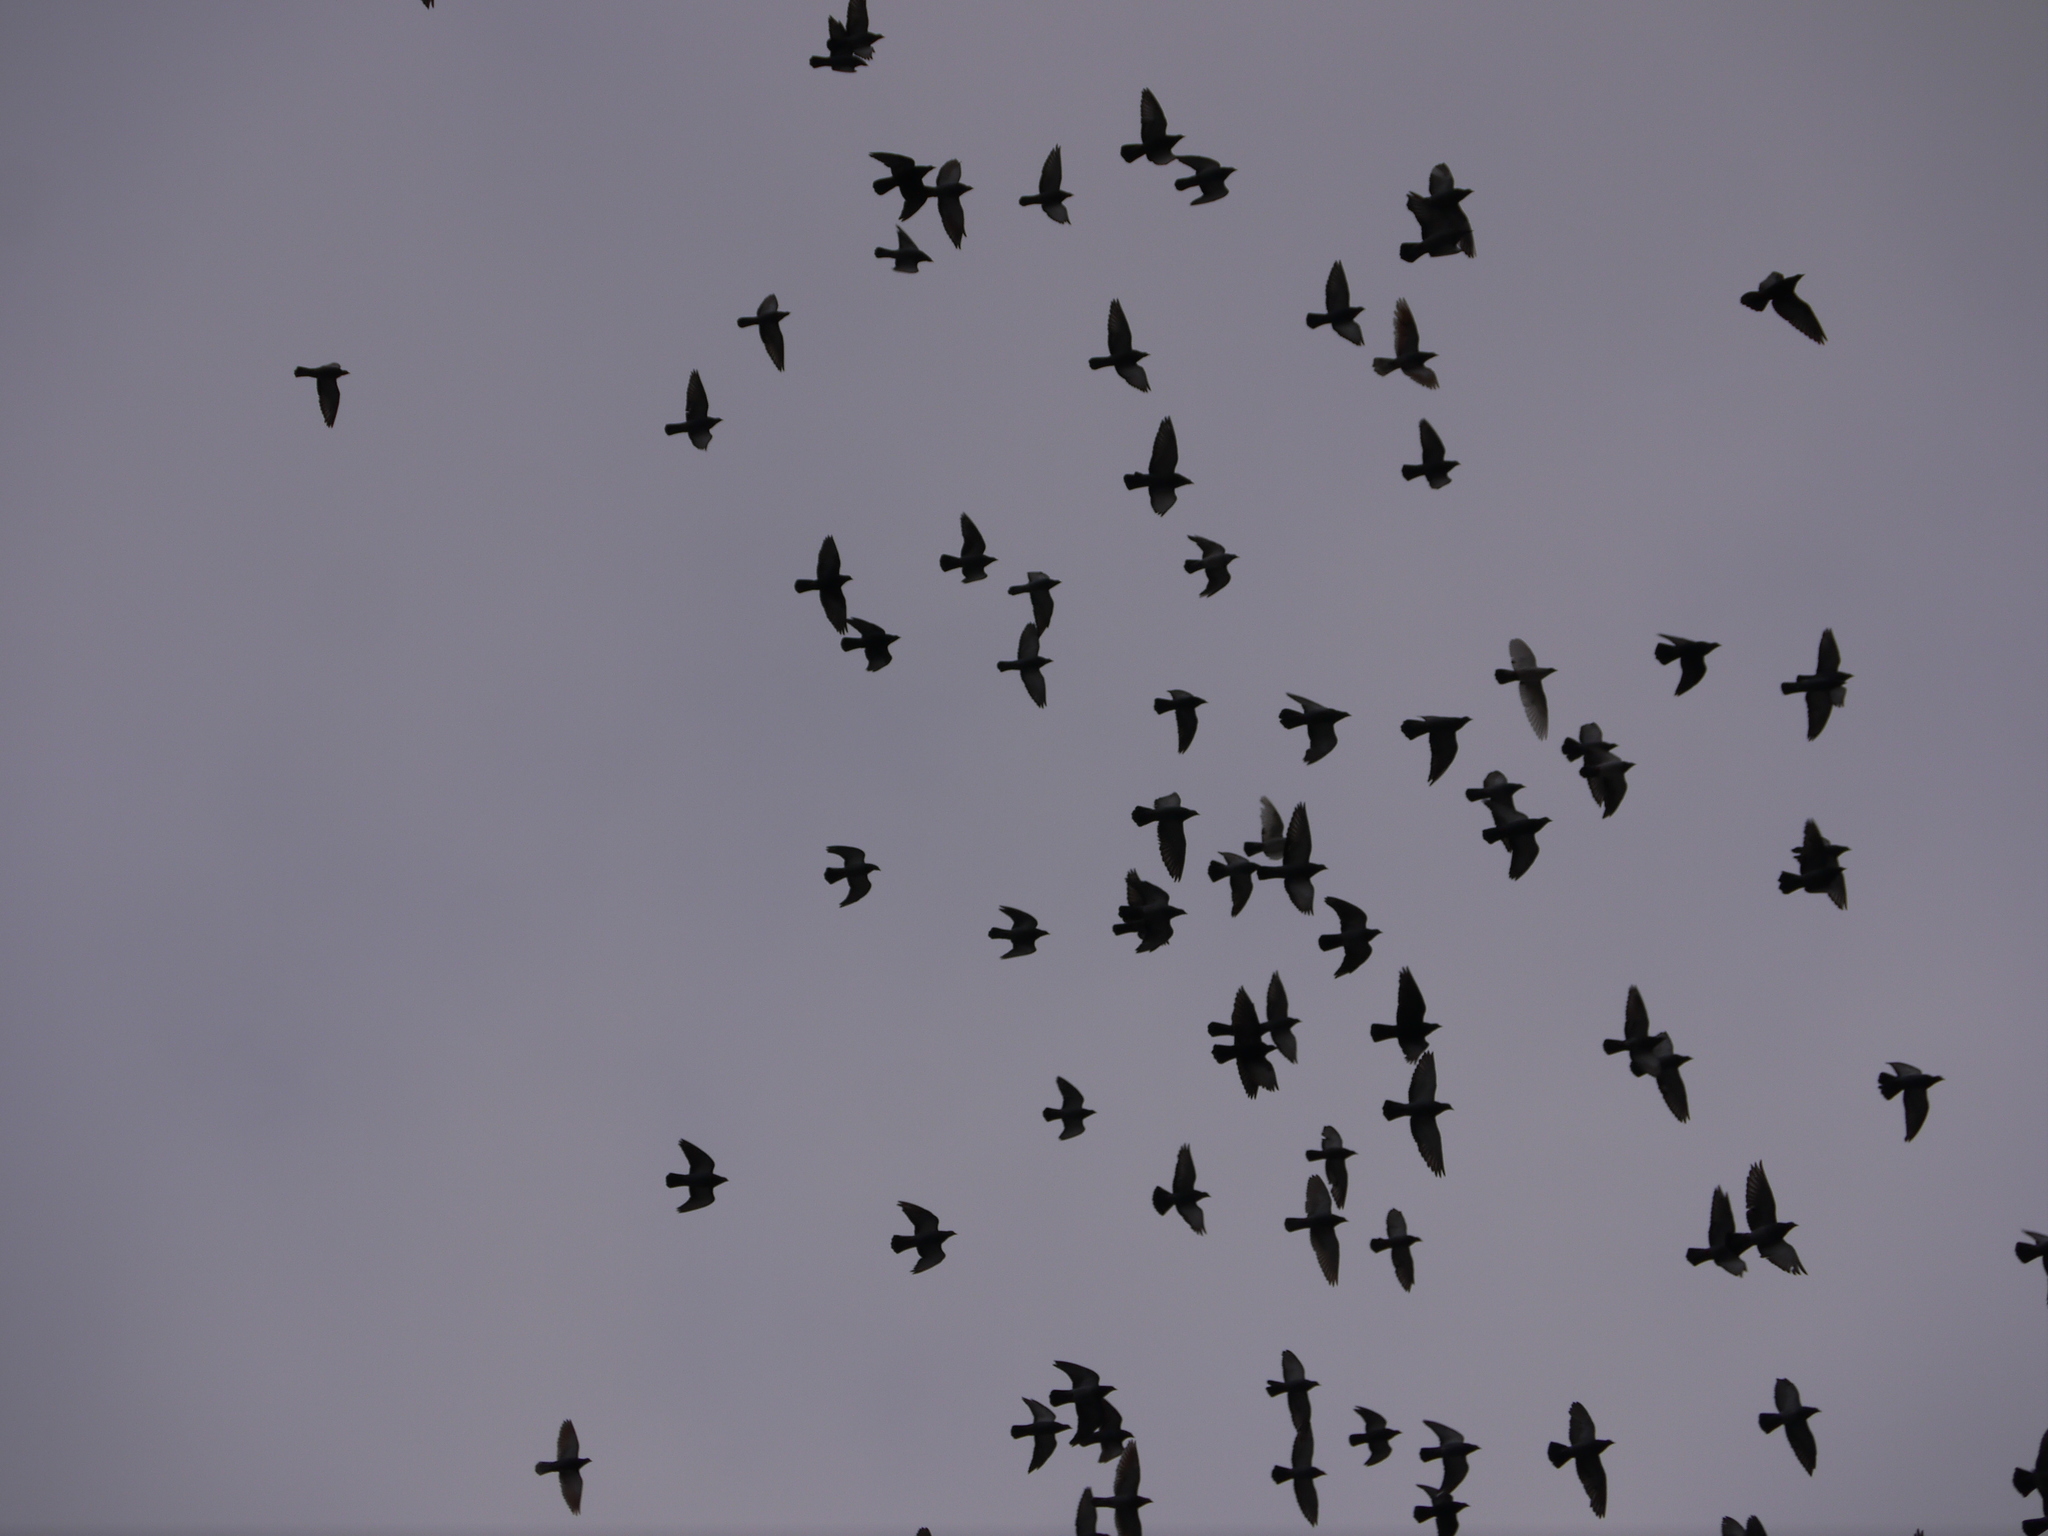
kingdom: Animalia
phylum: Chordata
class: Aves
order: Columbiformes
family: Columbidae
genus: Columba
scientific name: Columba livia
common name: Rock pigeon
